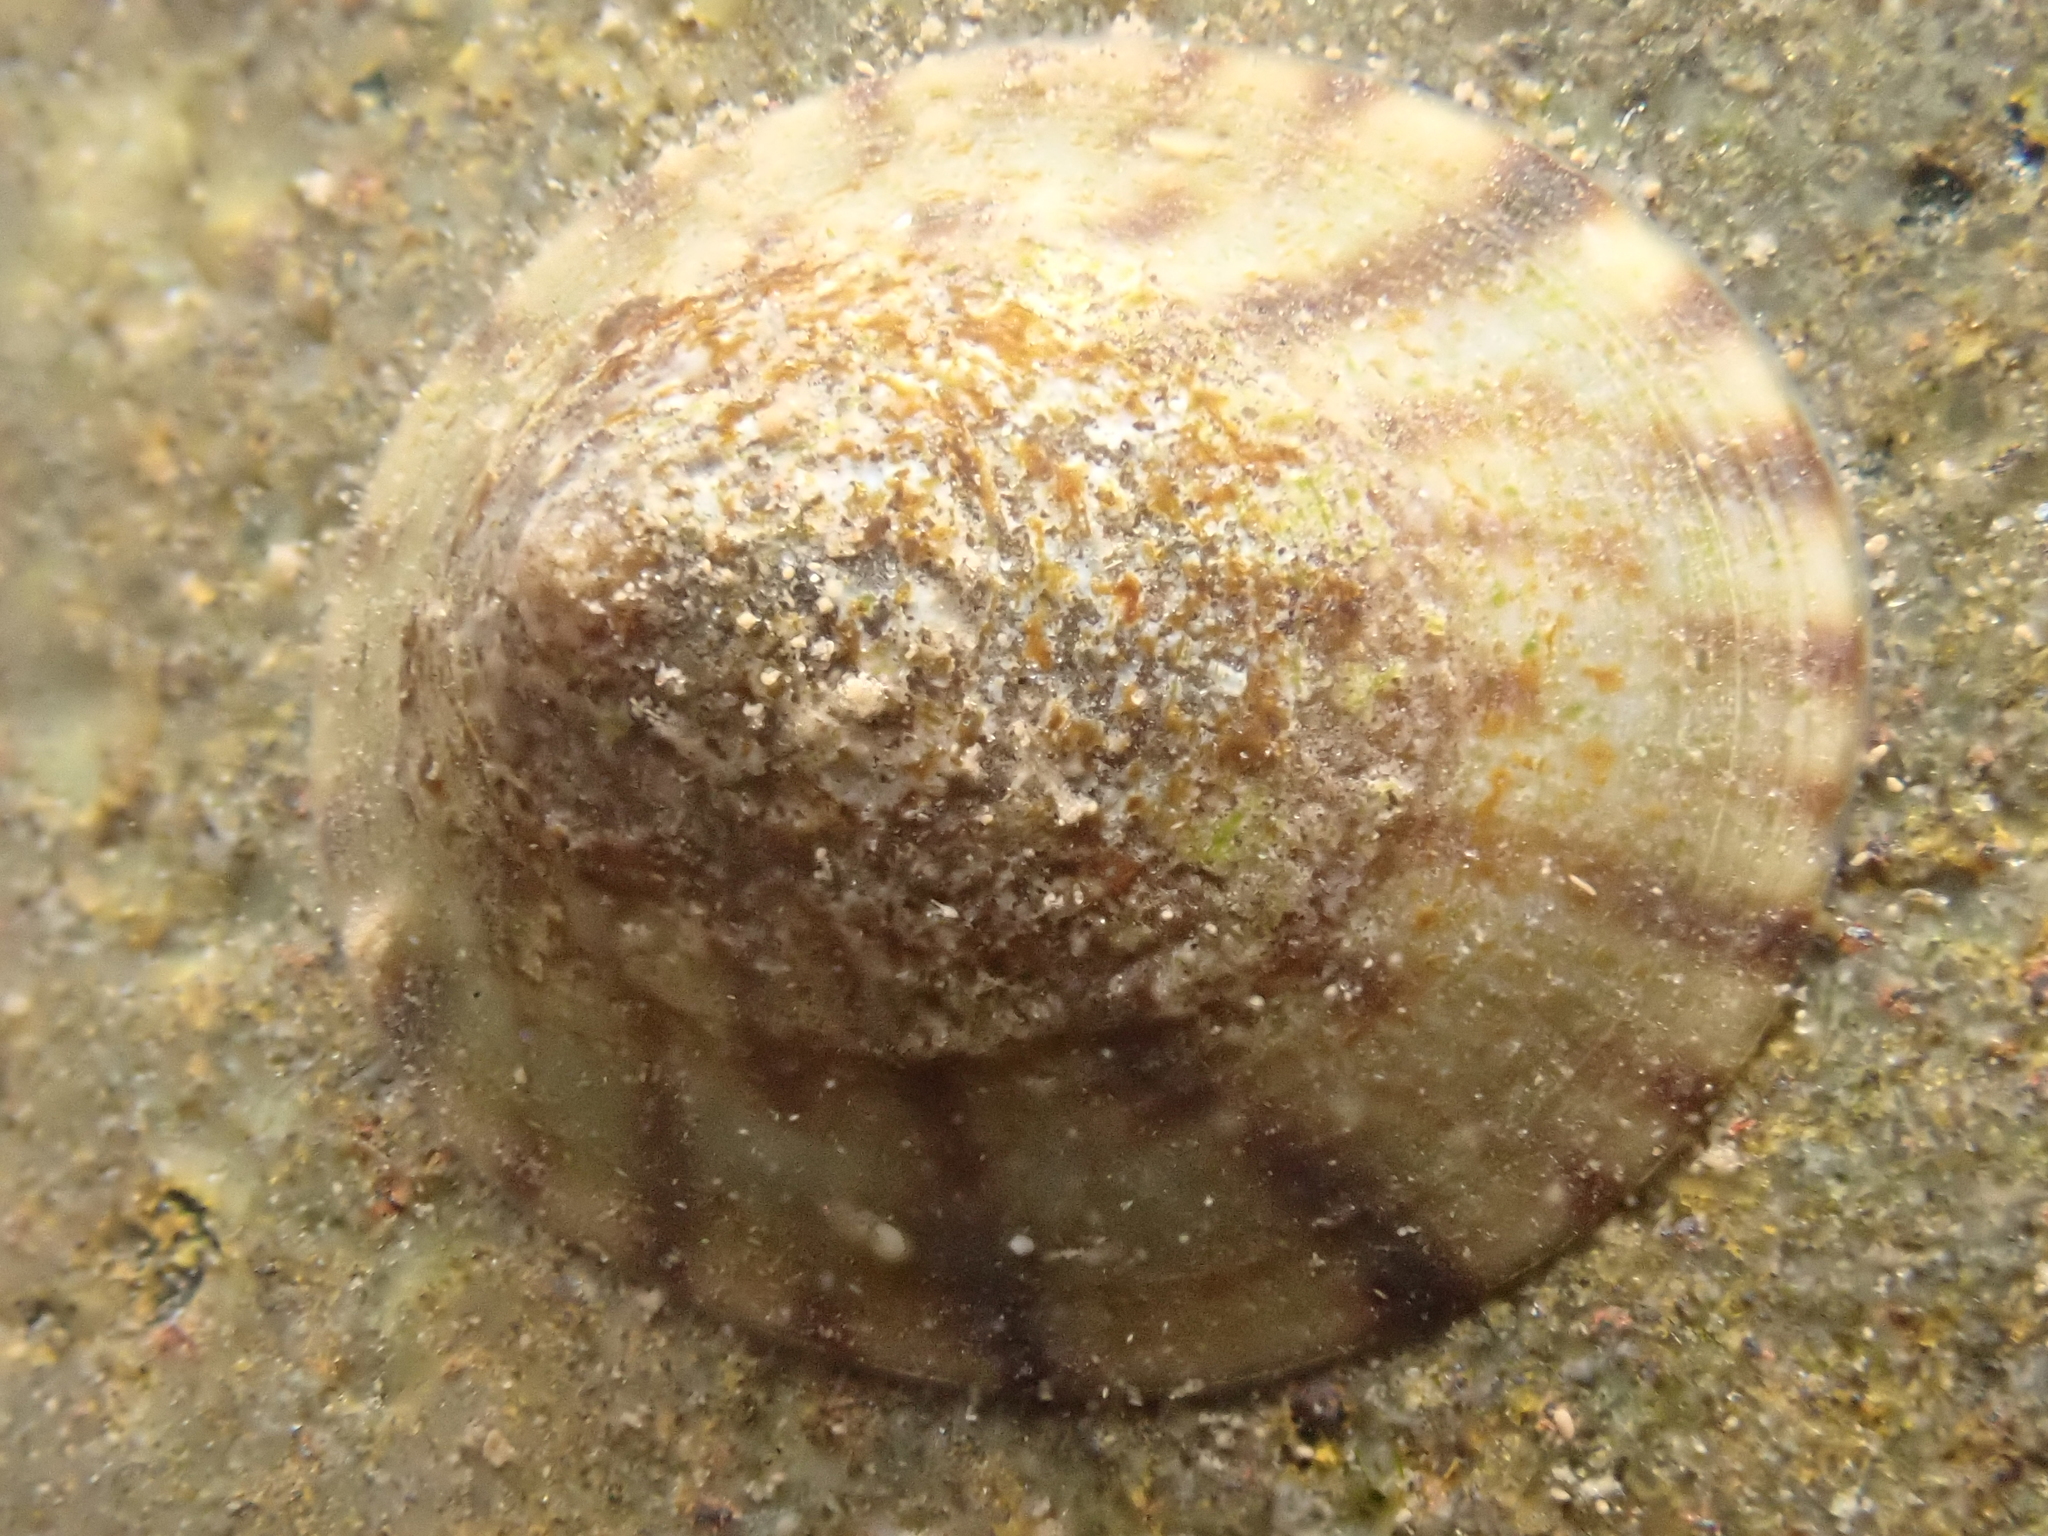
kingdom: Animalia
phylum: Mollusca
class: Gastropoda
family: Lottiidae
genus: Testudinalia
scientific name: Testudinalia testudinalis
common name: Common tortoiseshell limpet
